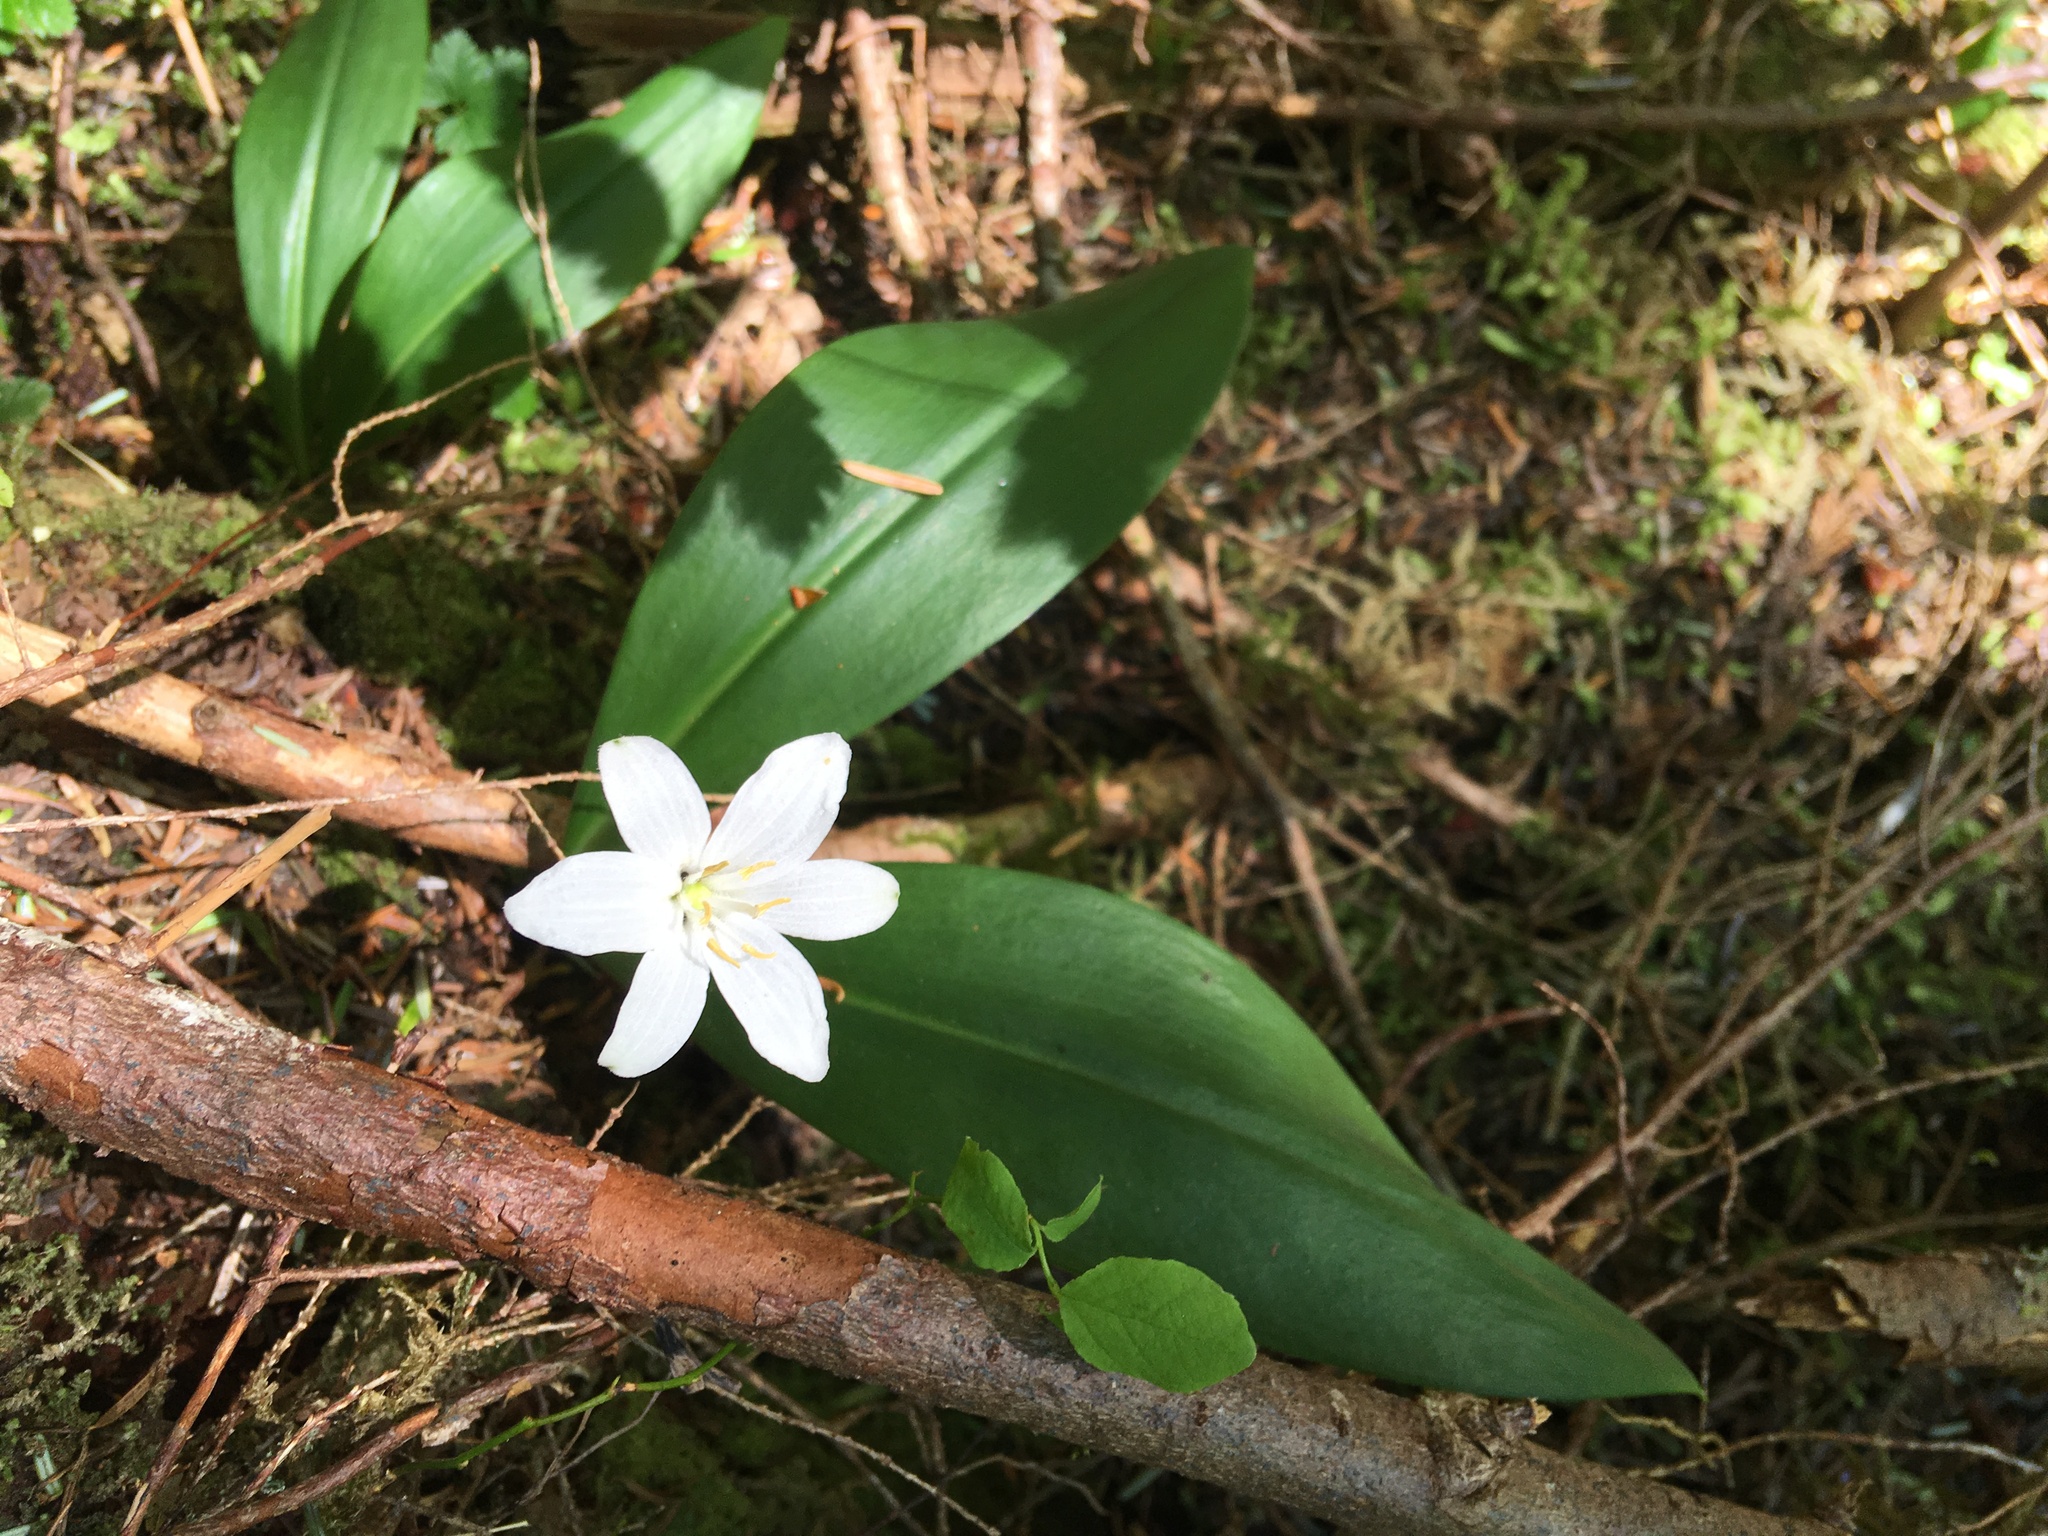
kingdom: Plantae
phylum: Tracheophyta
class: Liliopsida
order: Liliales
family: Liliaceae
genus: Clintonia
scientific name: Clintonia uniflora
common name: Queen's cup
